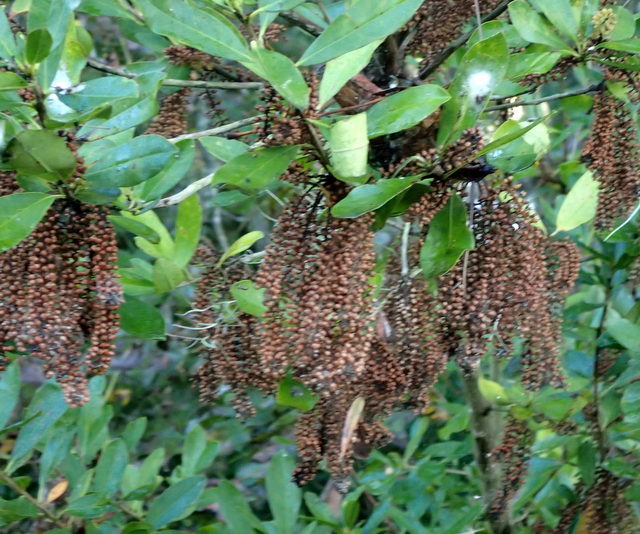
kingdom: Plantae
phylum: Tracheophyta
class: Magnoliopsida
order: Ericales
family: Cyrillaceae
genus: Cyrilla
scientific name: Cyrilla racemiflora
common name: Black titi
